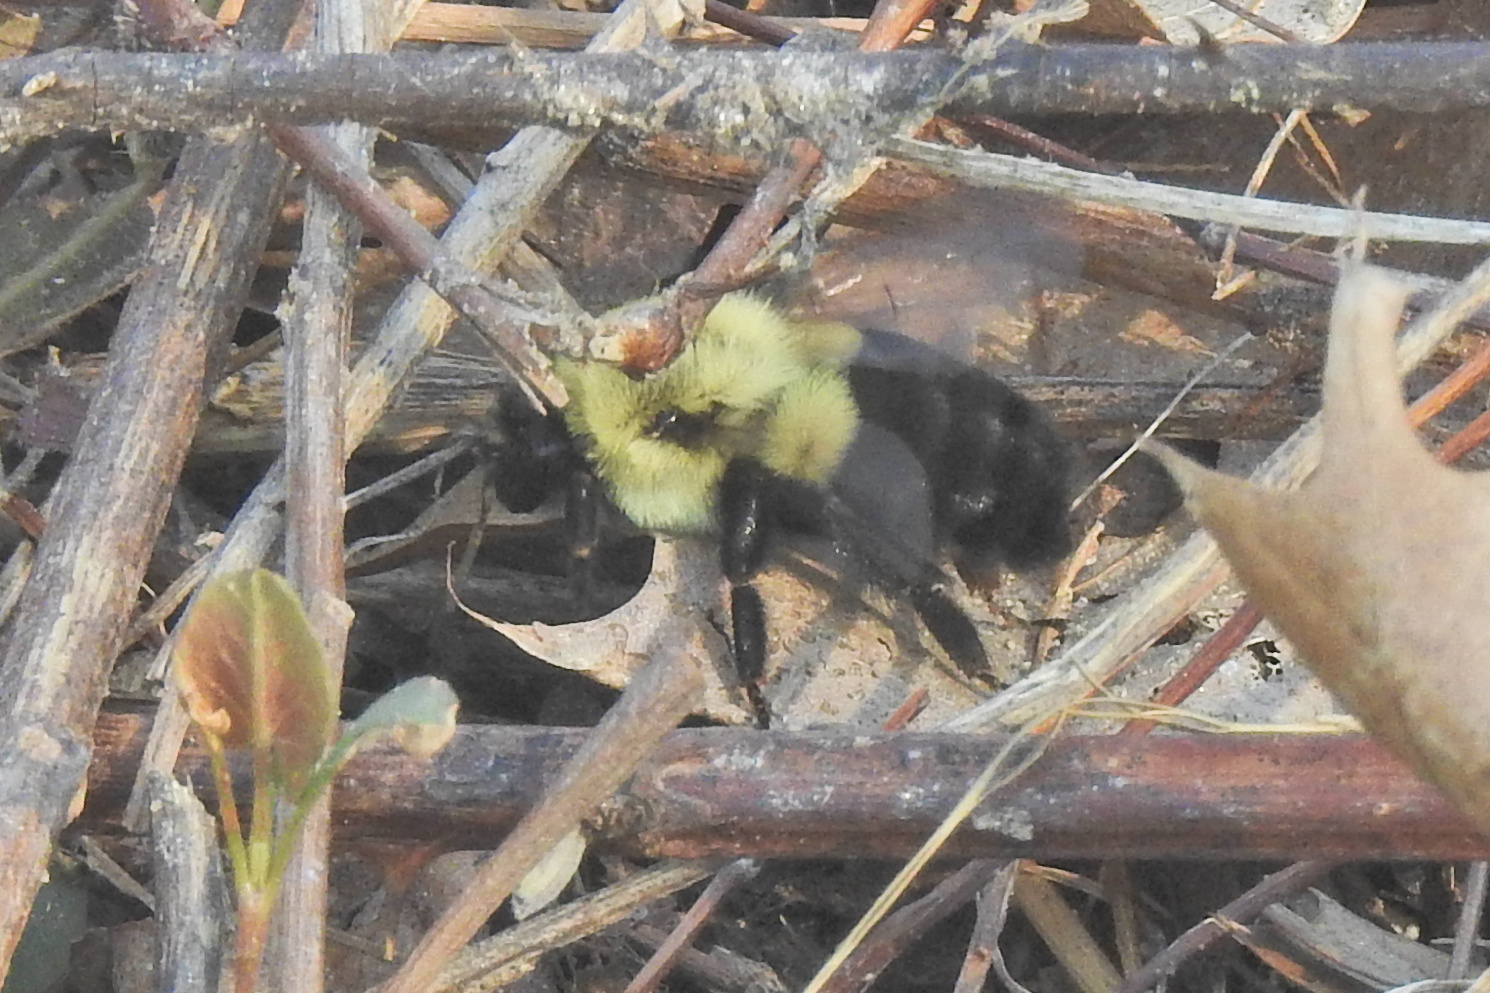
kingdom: Animalia
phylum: Arthropoda
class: Insecta
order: Hymenoptera
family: Apidae
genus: Bombus
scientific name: Bombus impatiens
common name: Common eastern bumble bee
